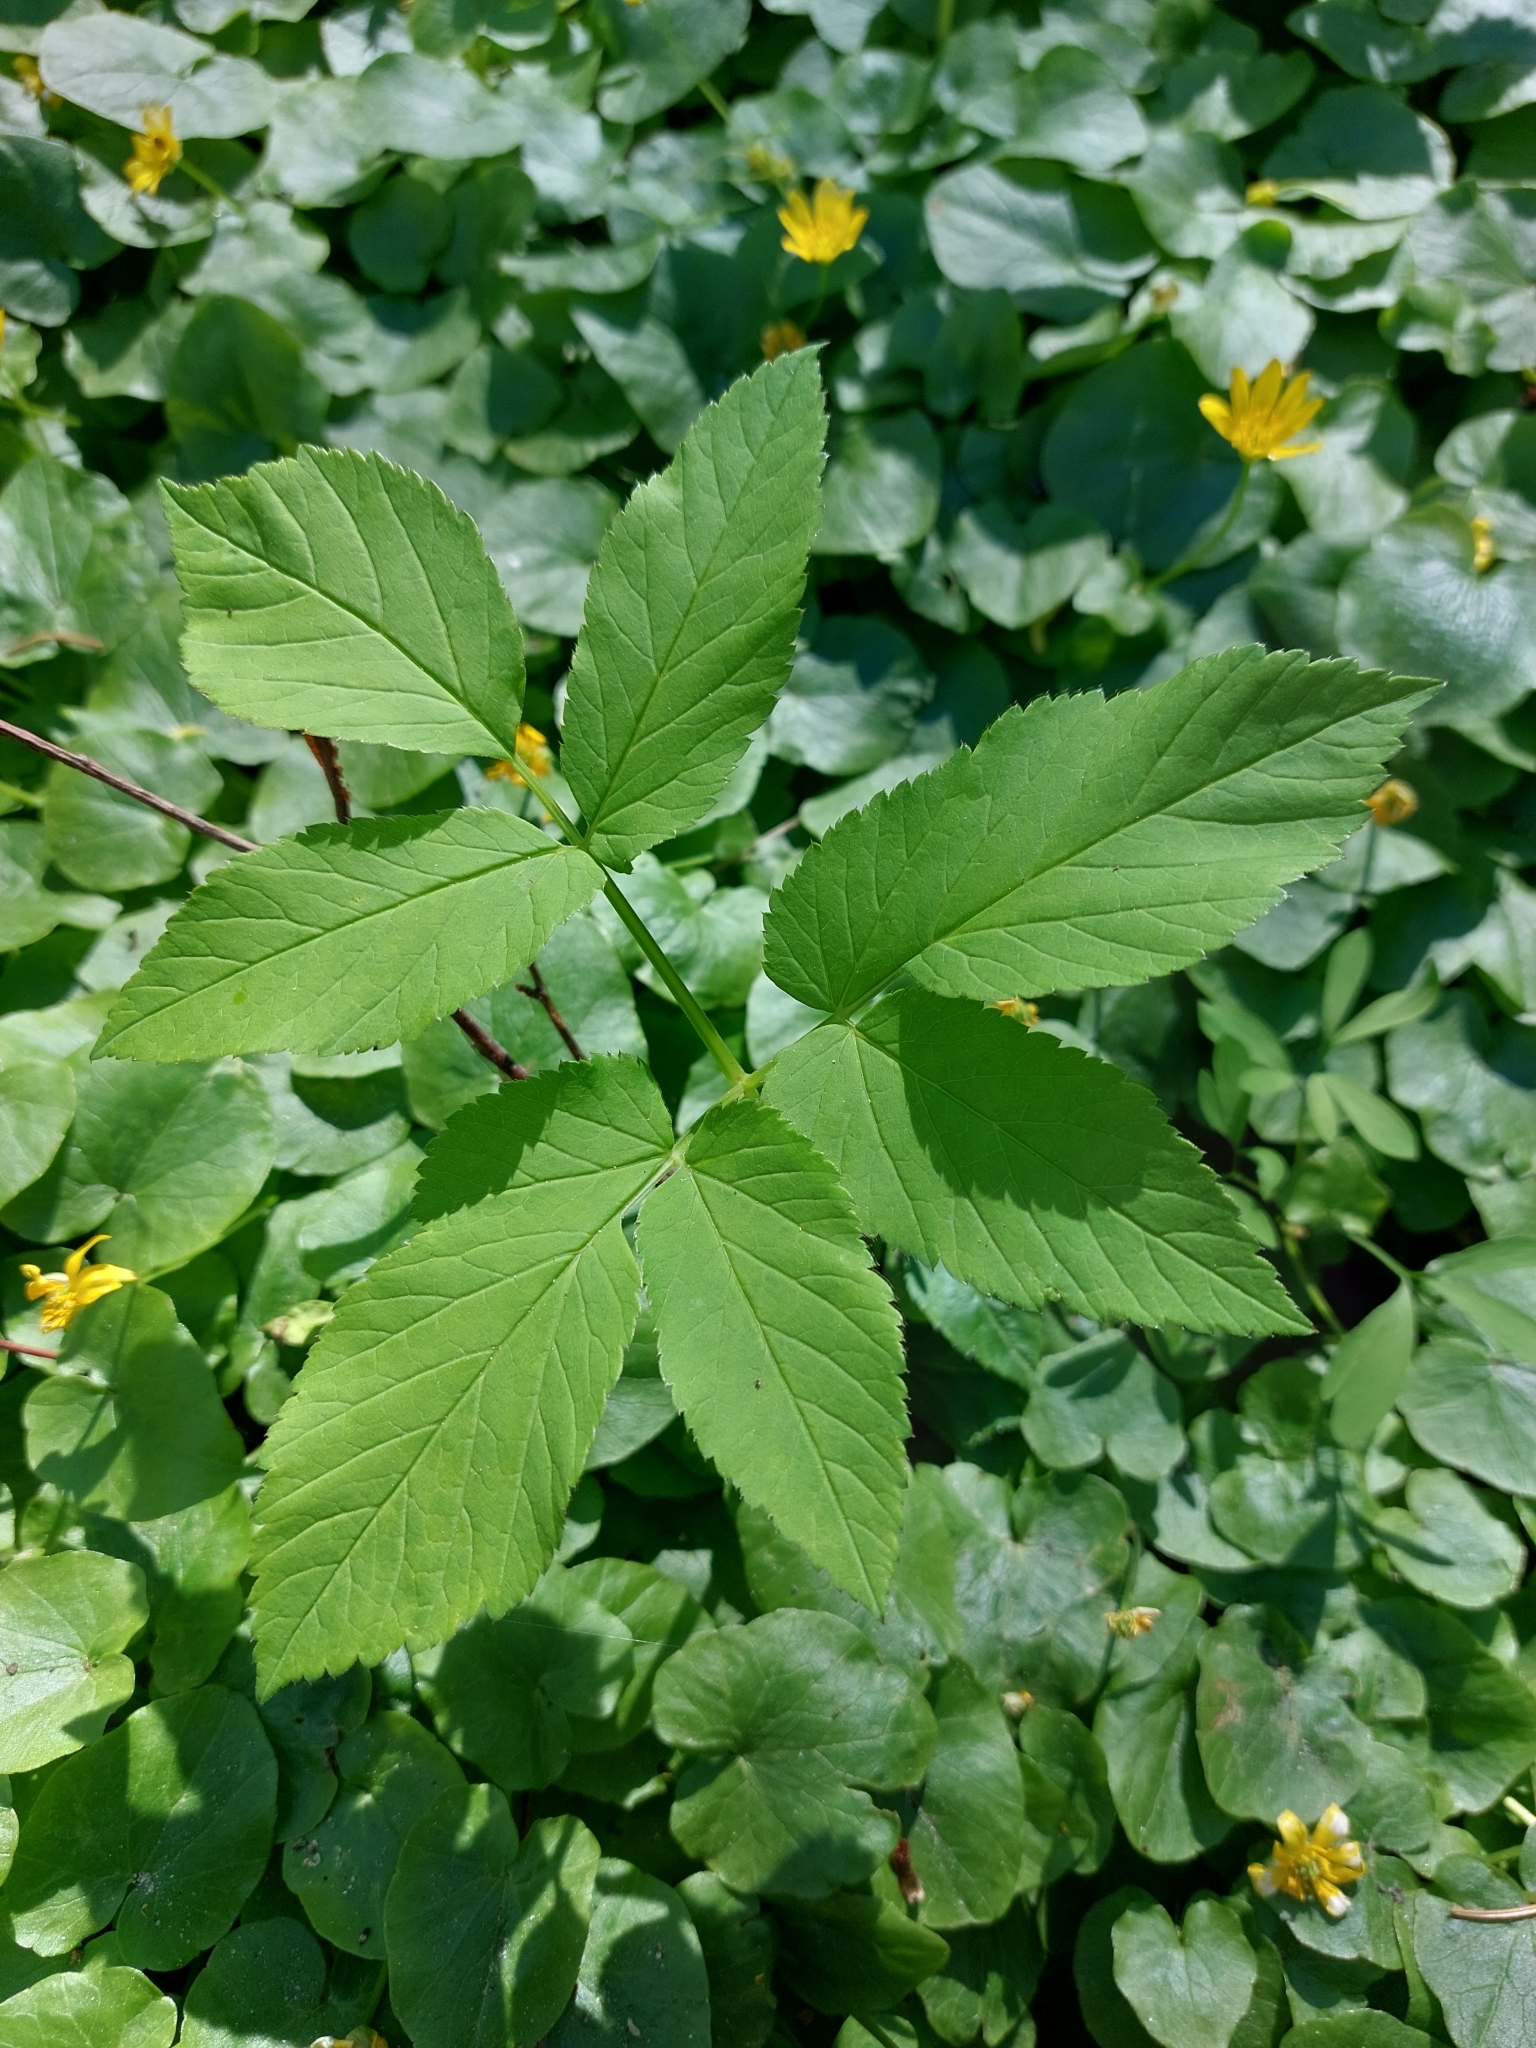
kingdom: Plantae
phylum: Tracheophyta
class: Magnoliopsida
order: Apiales
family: Apiaceae
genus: Aegopodium
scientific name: Aegopodium podagraria
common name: Ground-elder
